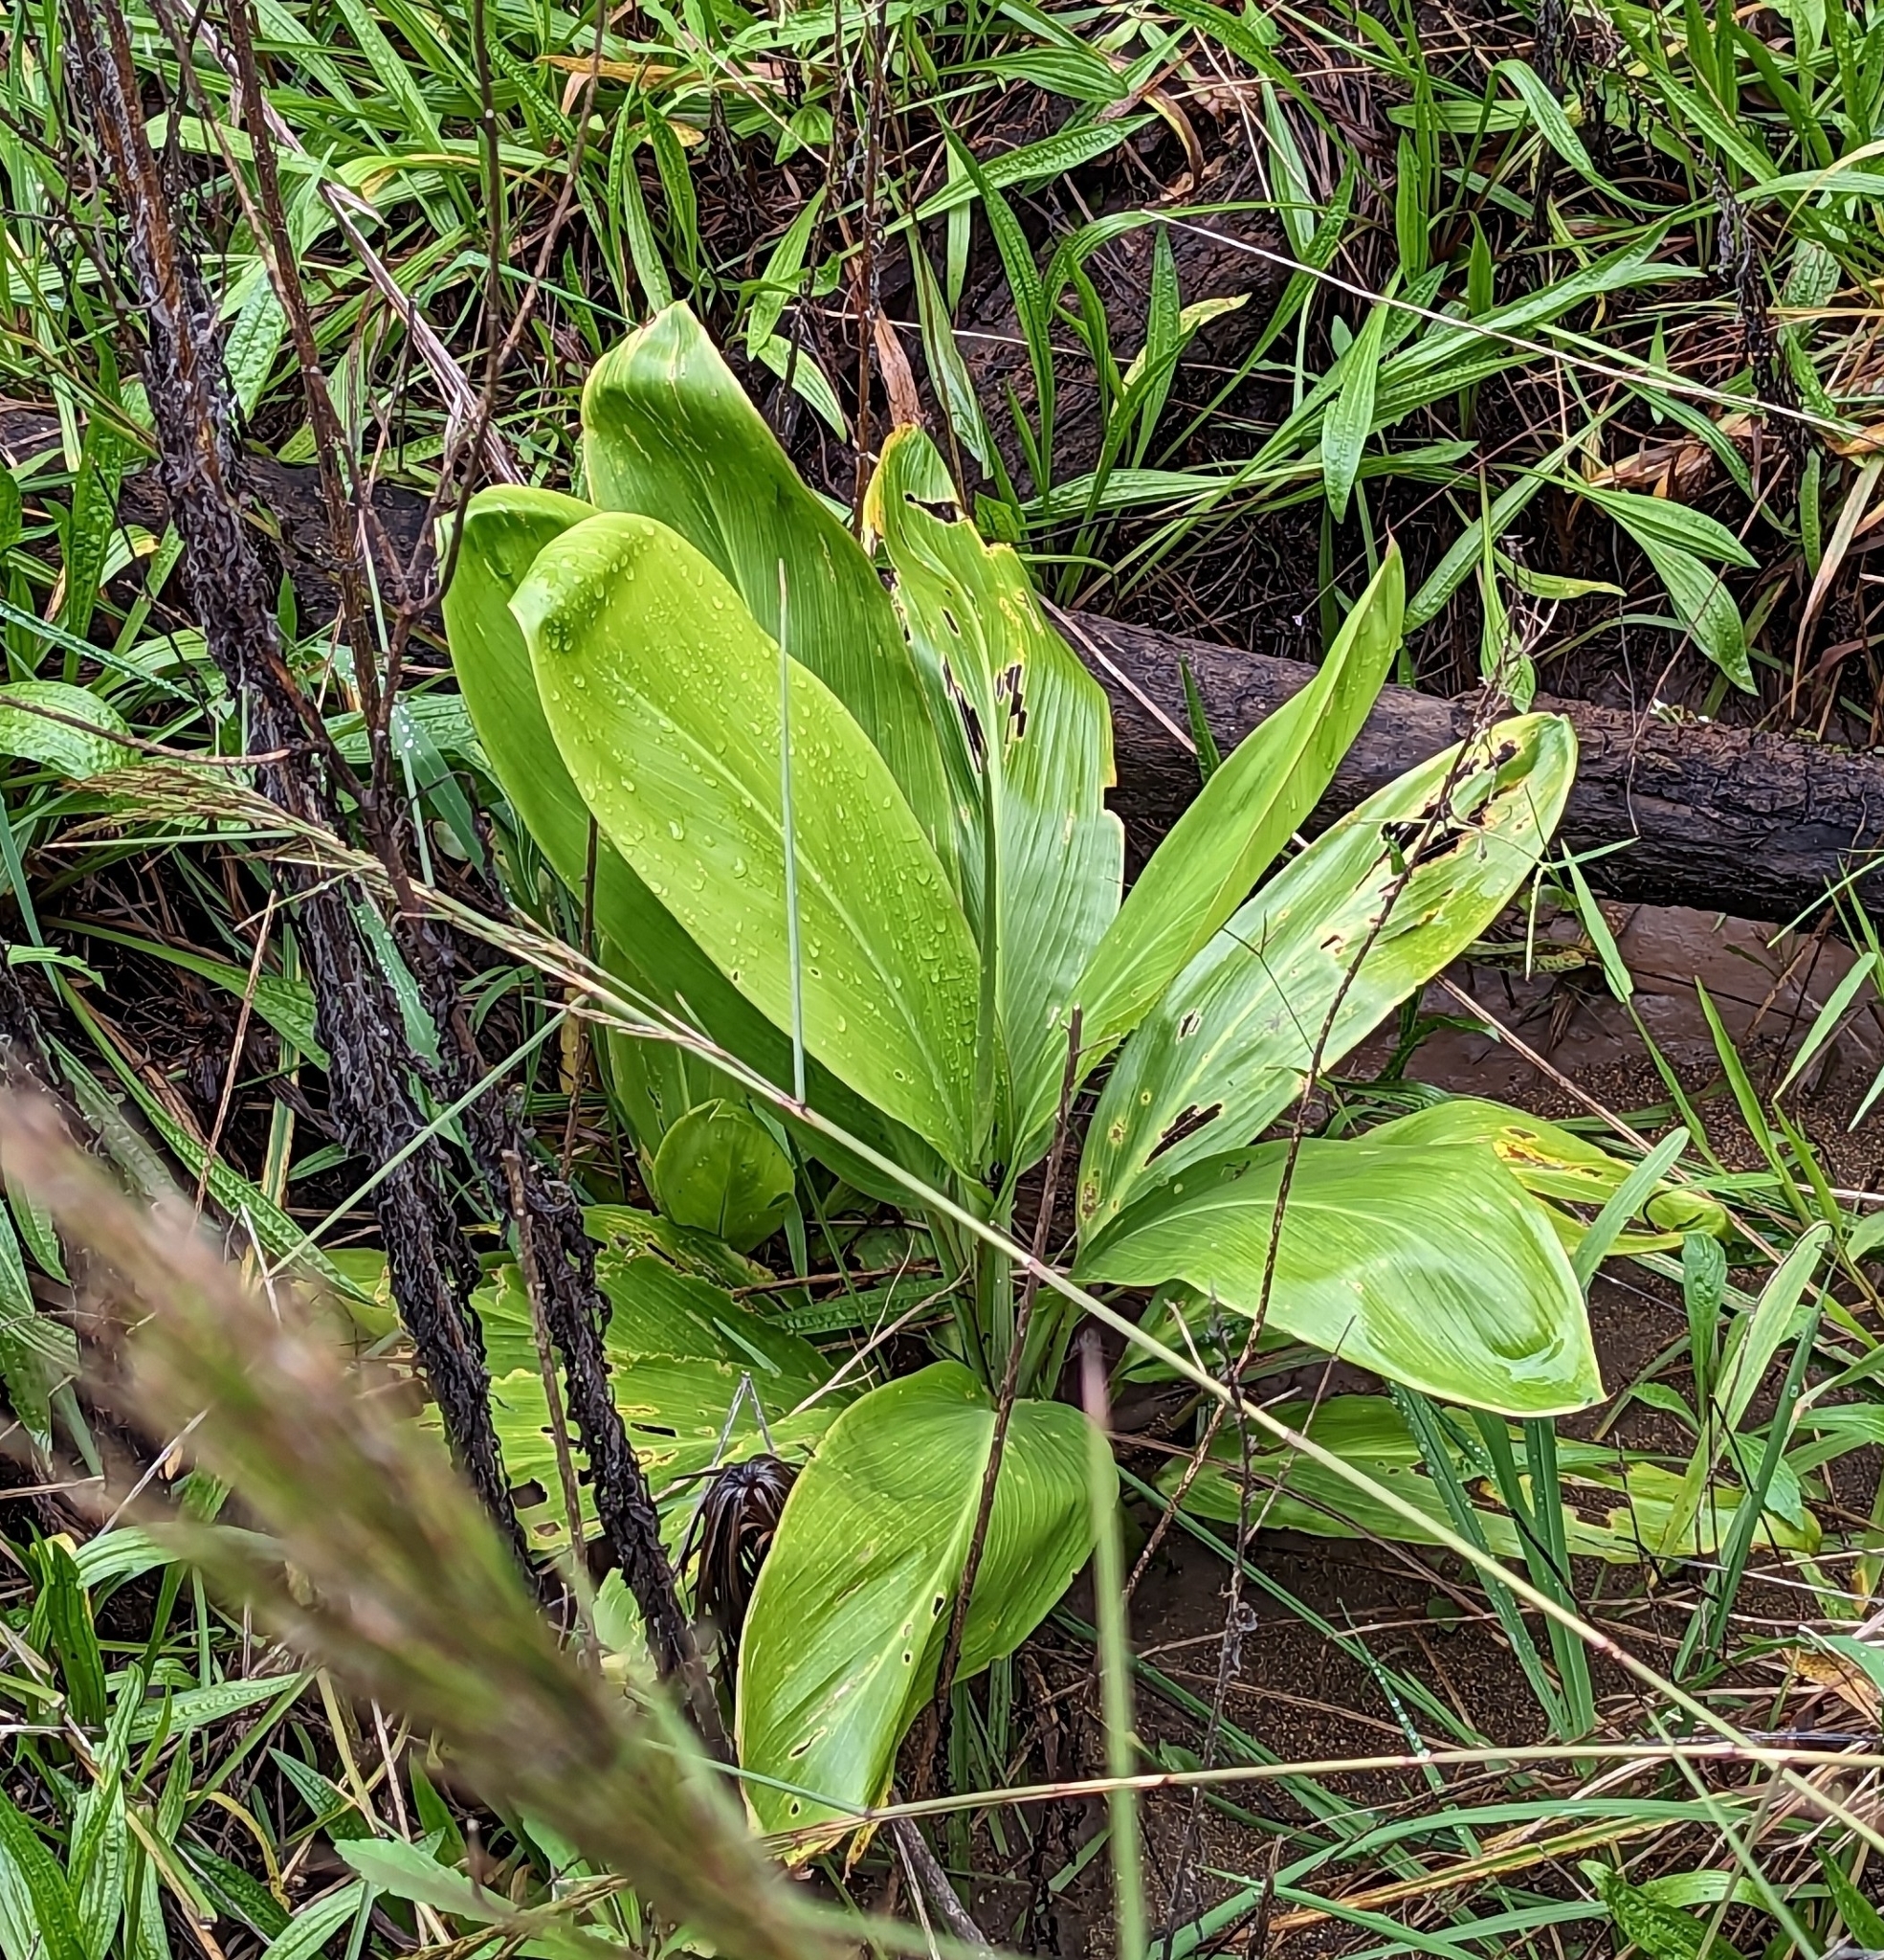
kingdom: Plantae
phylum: Tracheophyta
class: Liliopsida
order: Asparagales
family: Asparagaceae
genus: Cordyline
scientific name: Cordyline fruticosa
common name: Good-luck-plant
